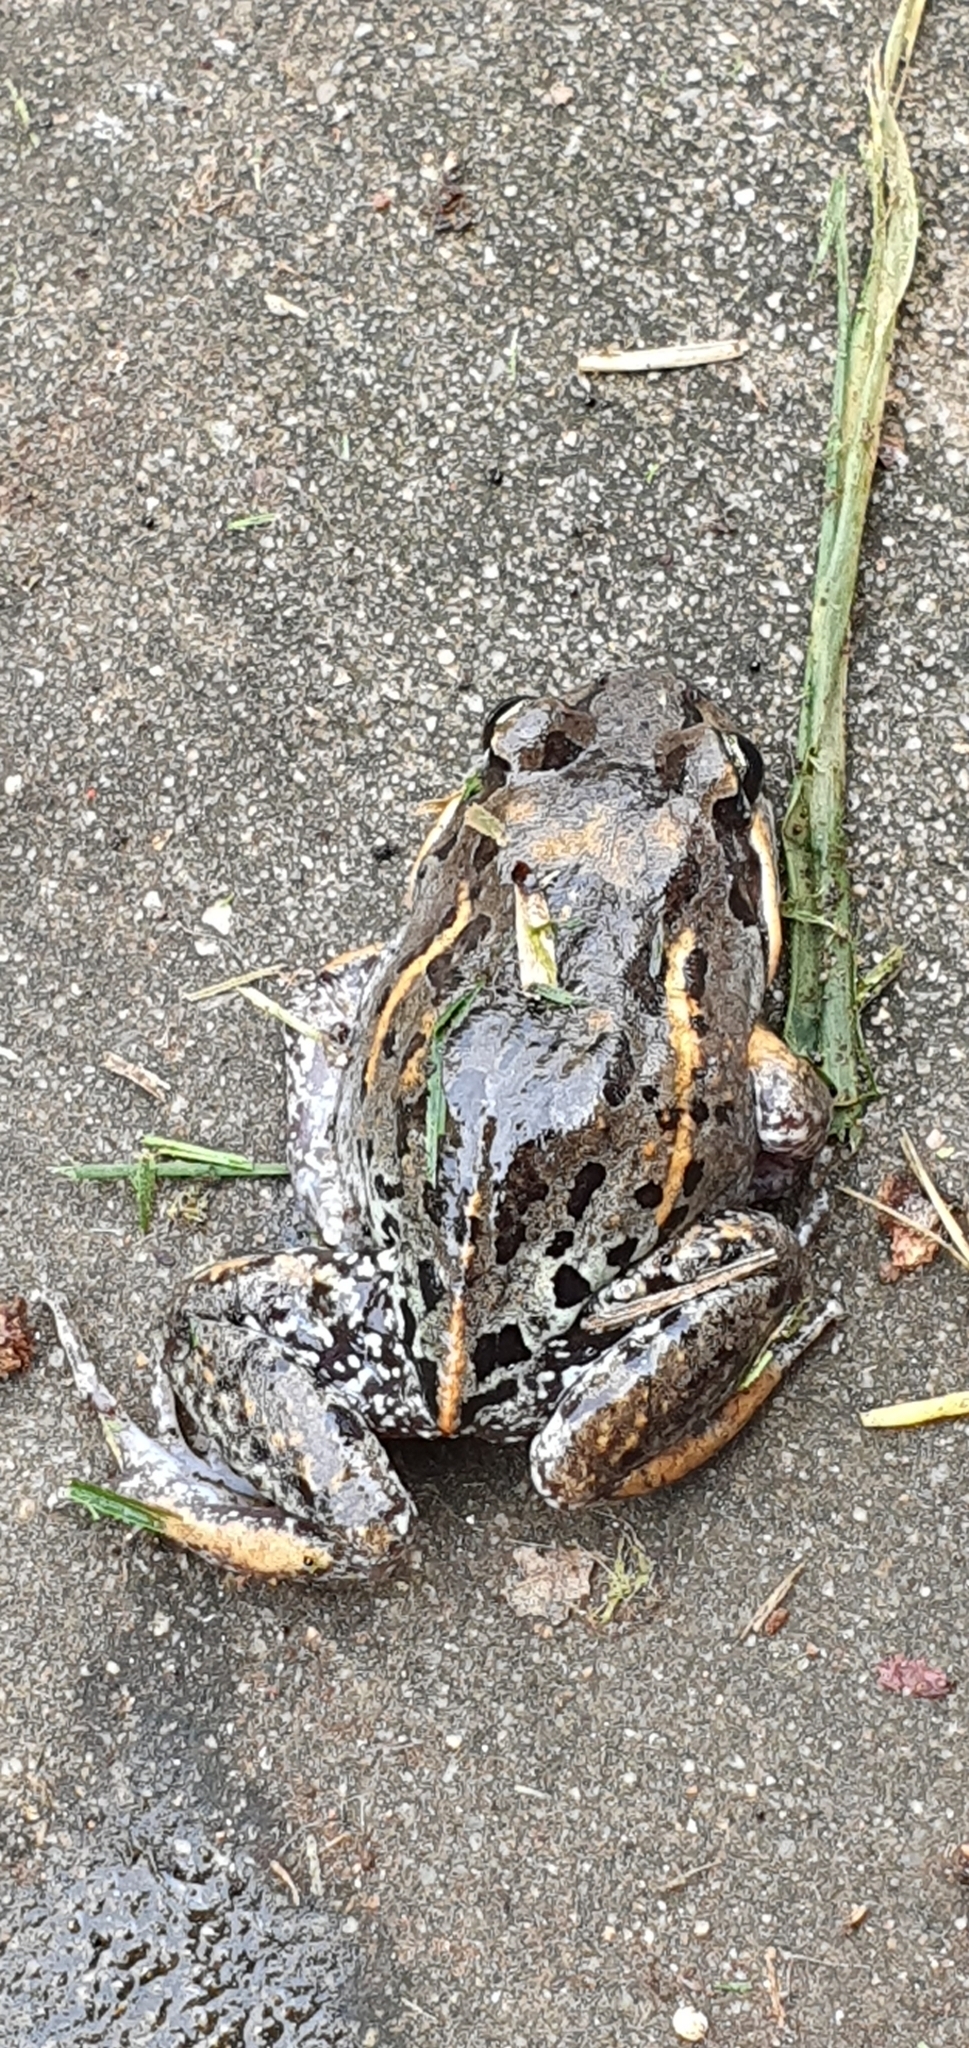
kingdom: Animalia
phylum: Chordata
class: Amphibia
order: Anura
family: Limnodynastidae
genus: Limnodynastes
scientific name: Limnodynastes salmini
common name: Salmon-striped frog
